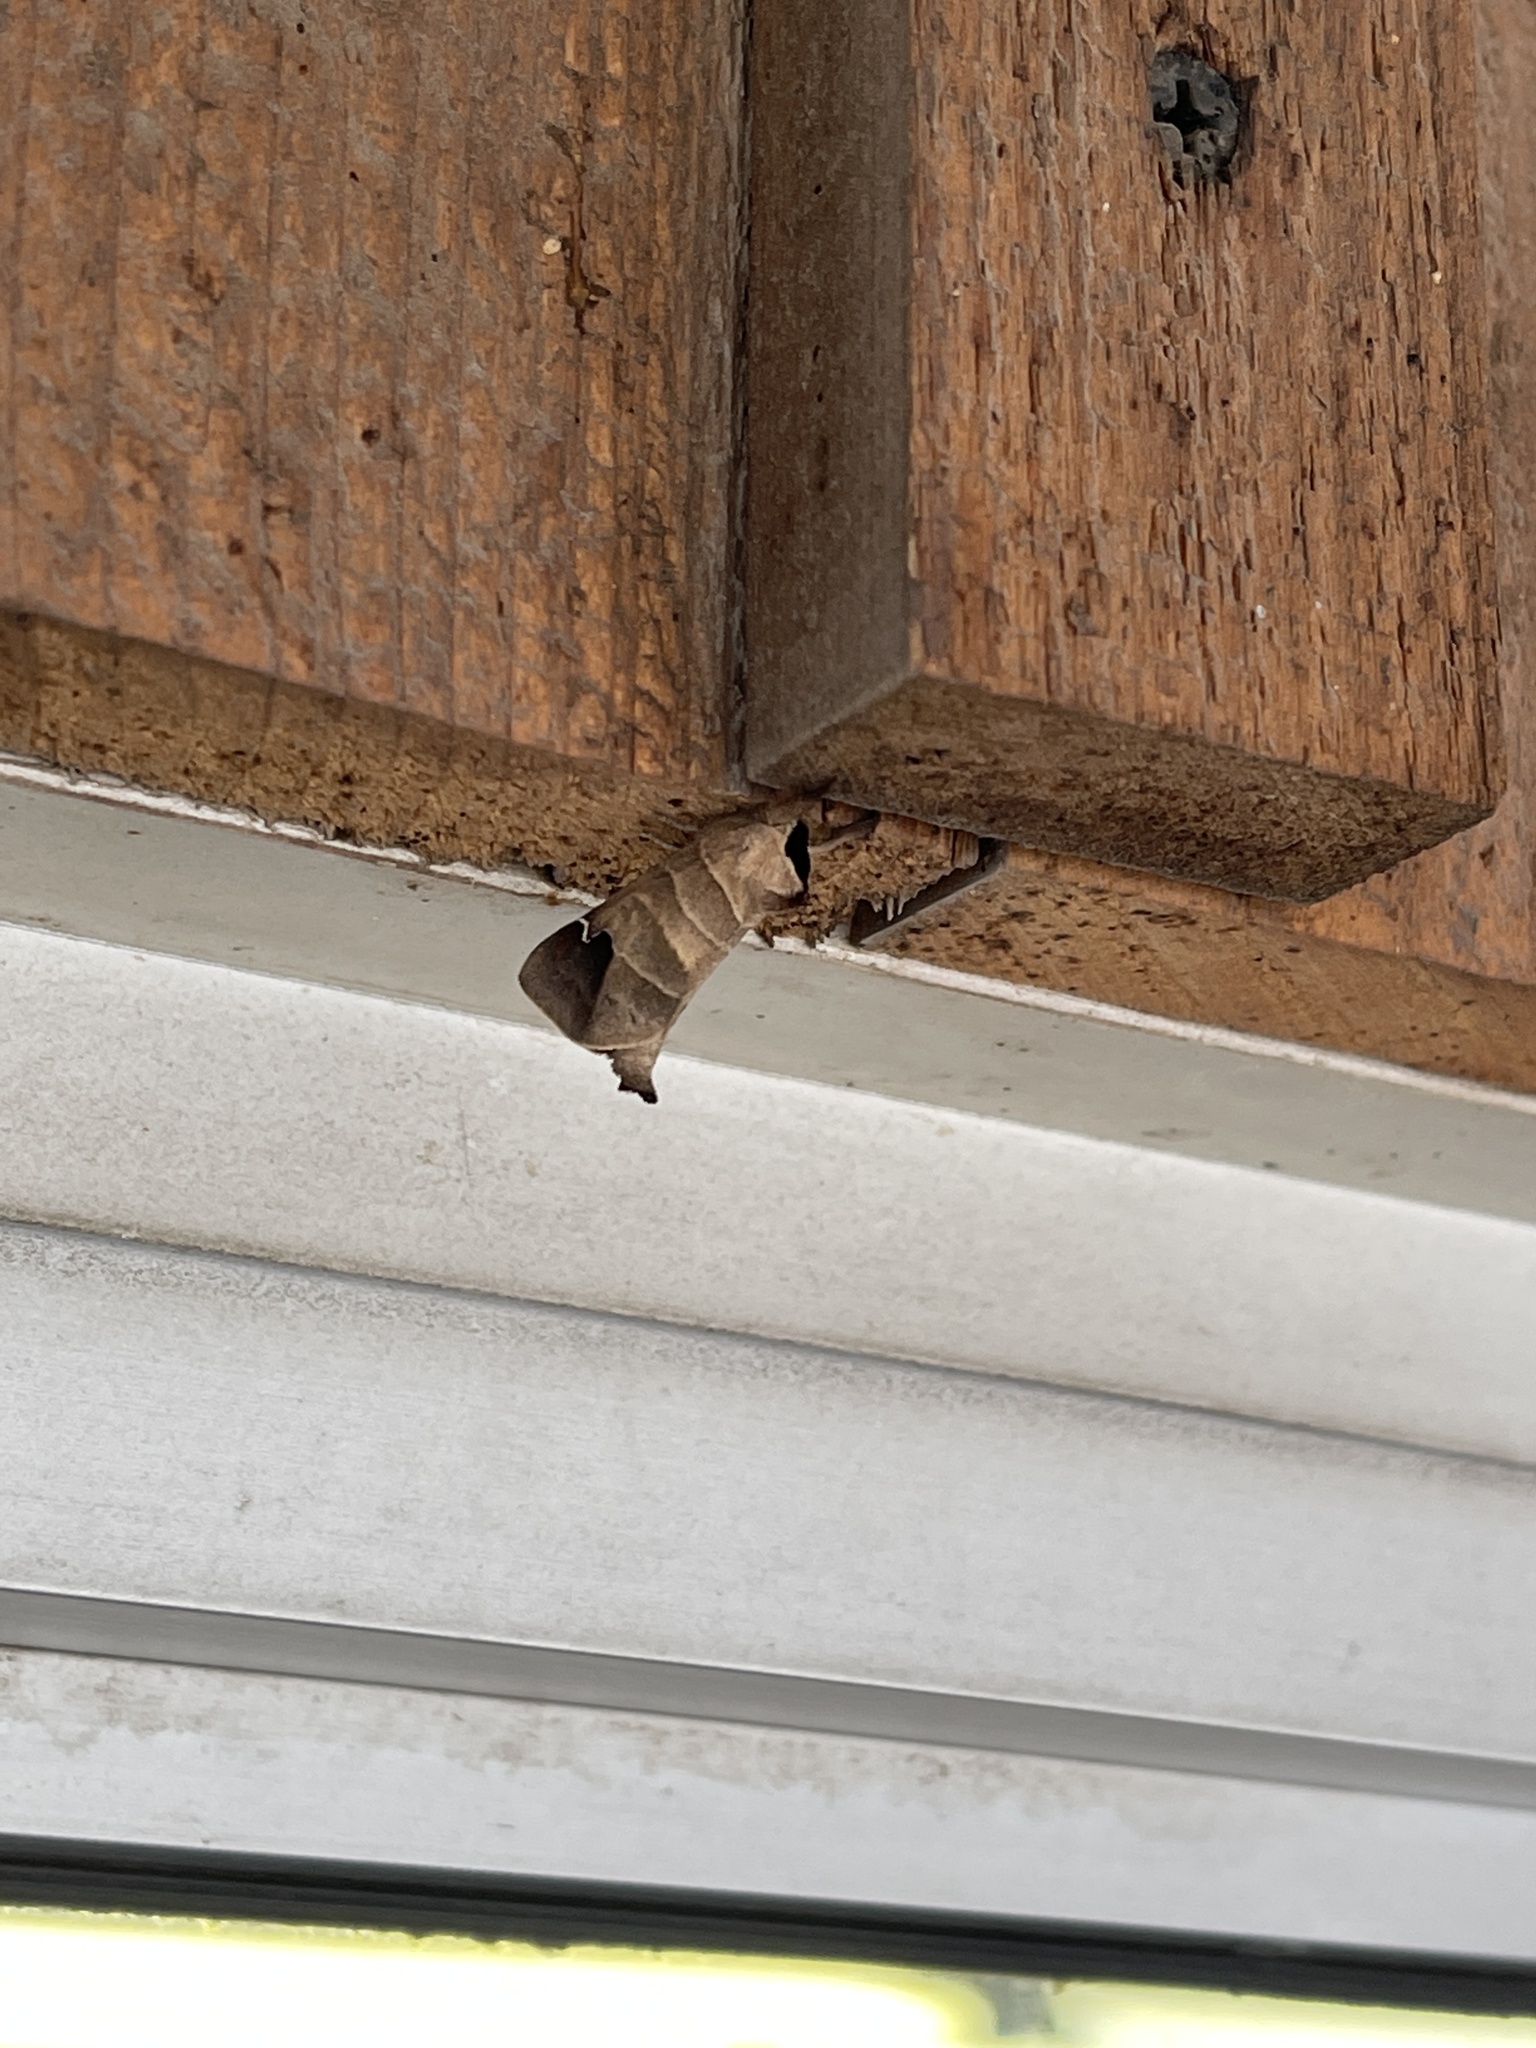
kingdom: Animalia
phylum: Arthropoda
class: Insecta
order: Lepidoptera
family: Notodontidae
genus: Clostera
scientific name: Clostera albosigma
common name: Sigmoid prominent
